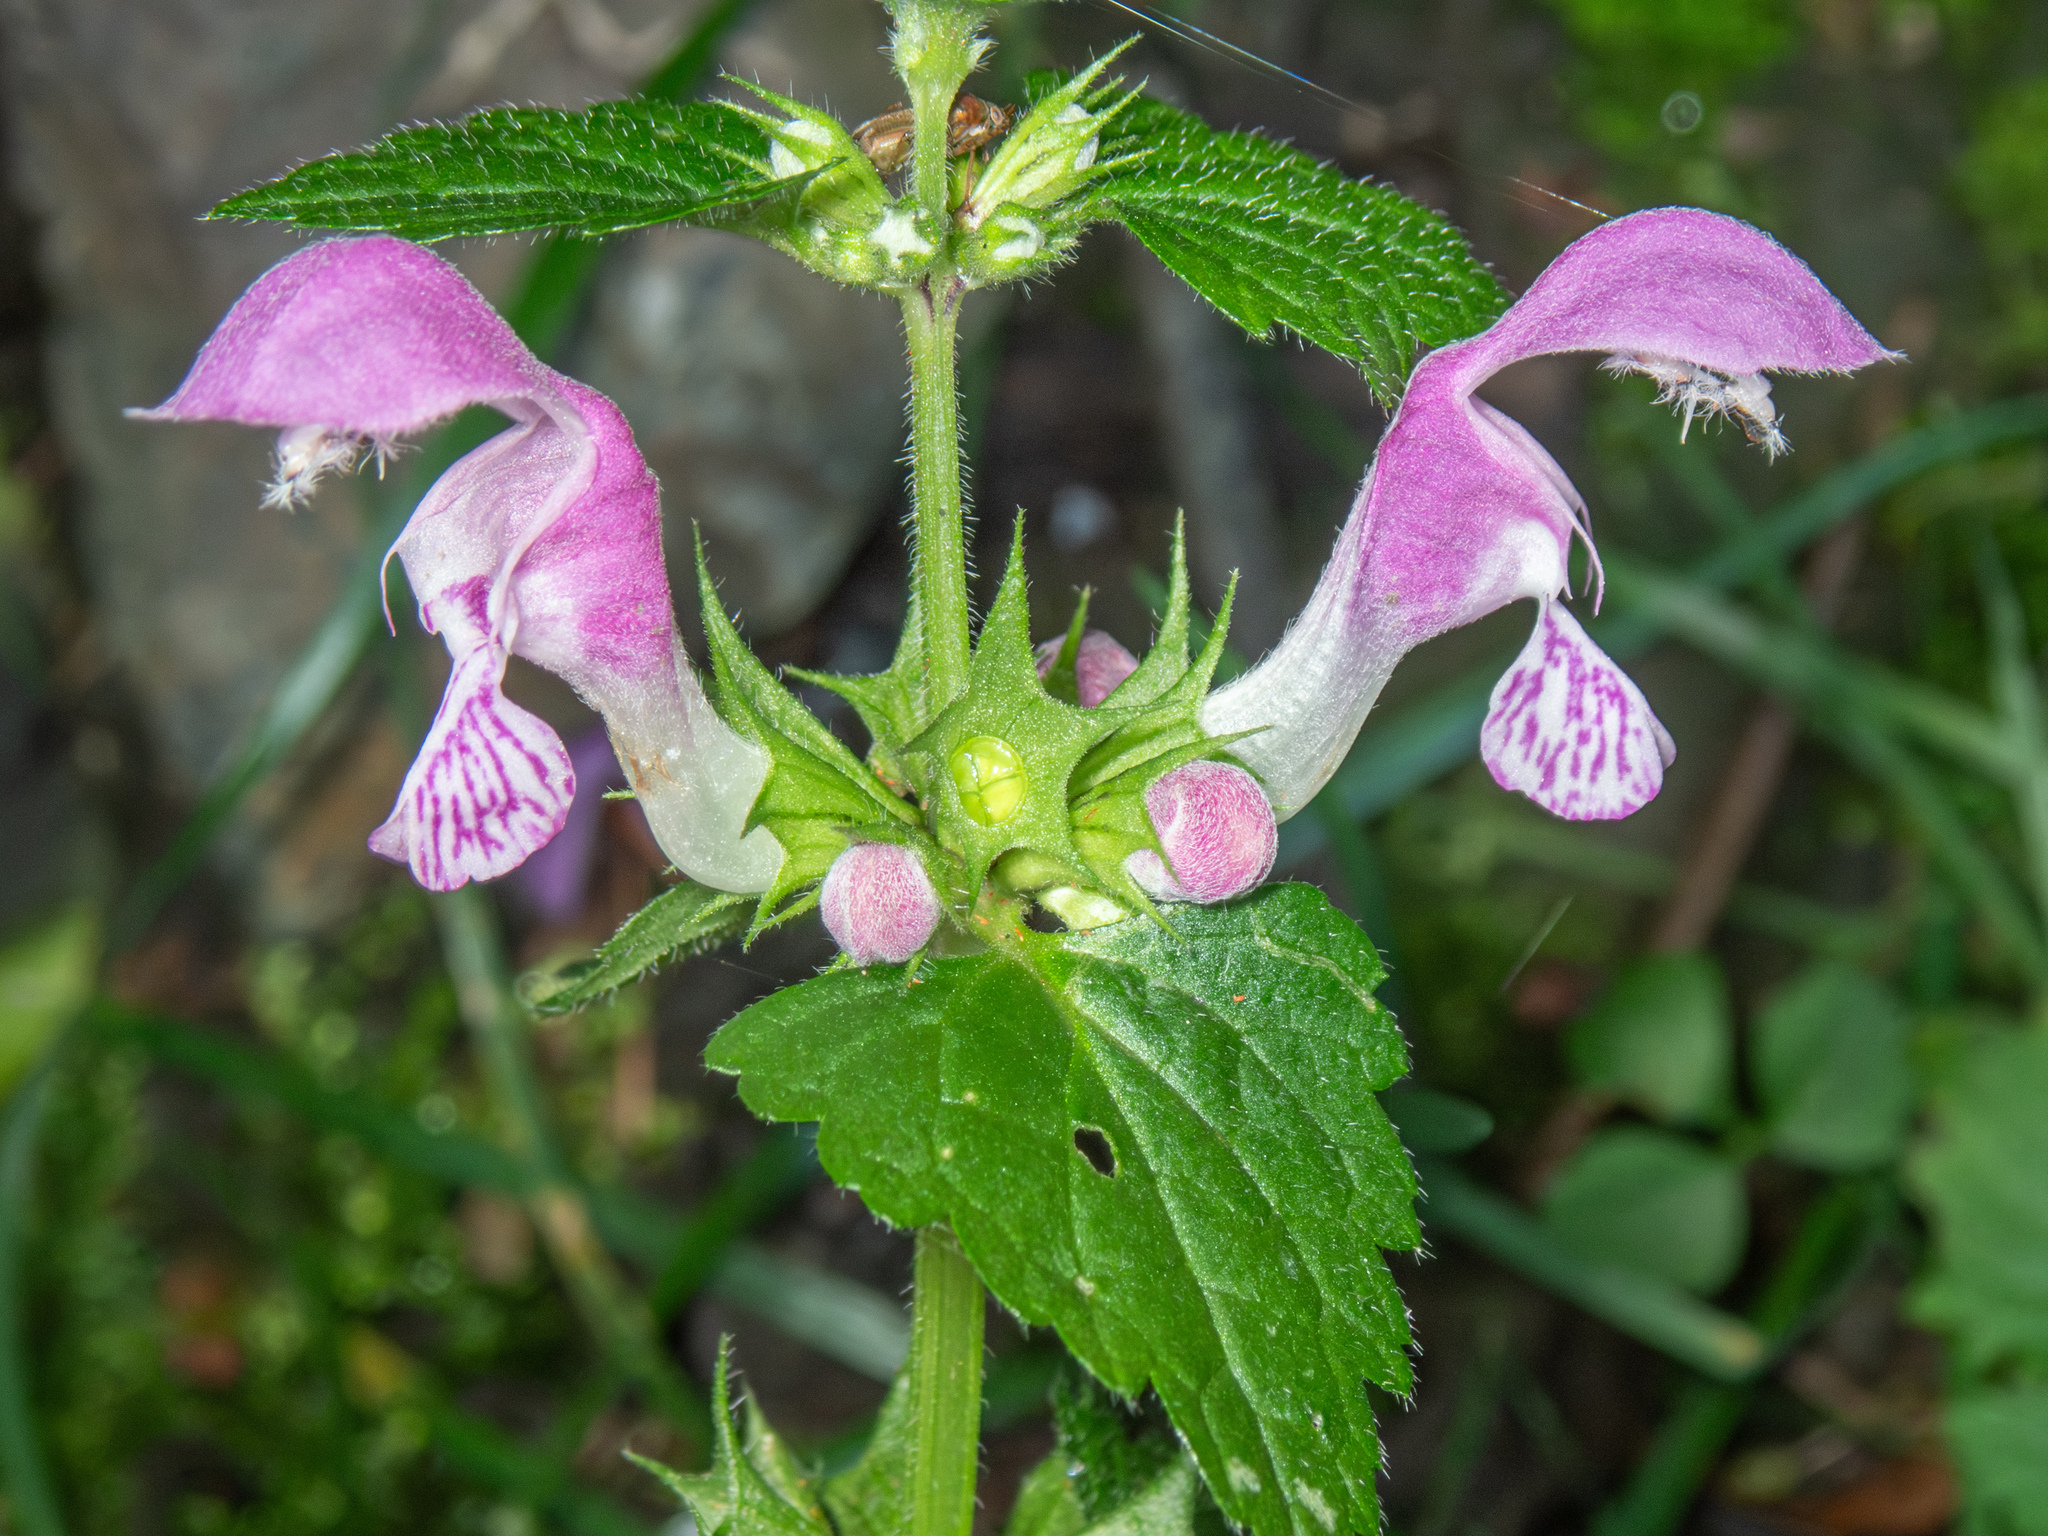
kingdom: Plantae
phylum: Tracheophyta
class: Magnoliopsida
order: Lamiales
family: Lamiaceae
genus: Lamium
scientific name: Lamium maculatum
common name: Spotted dead-nettle
